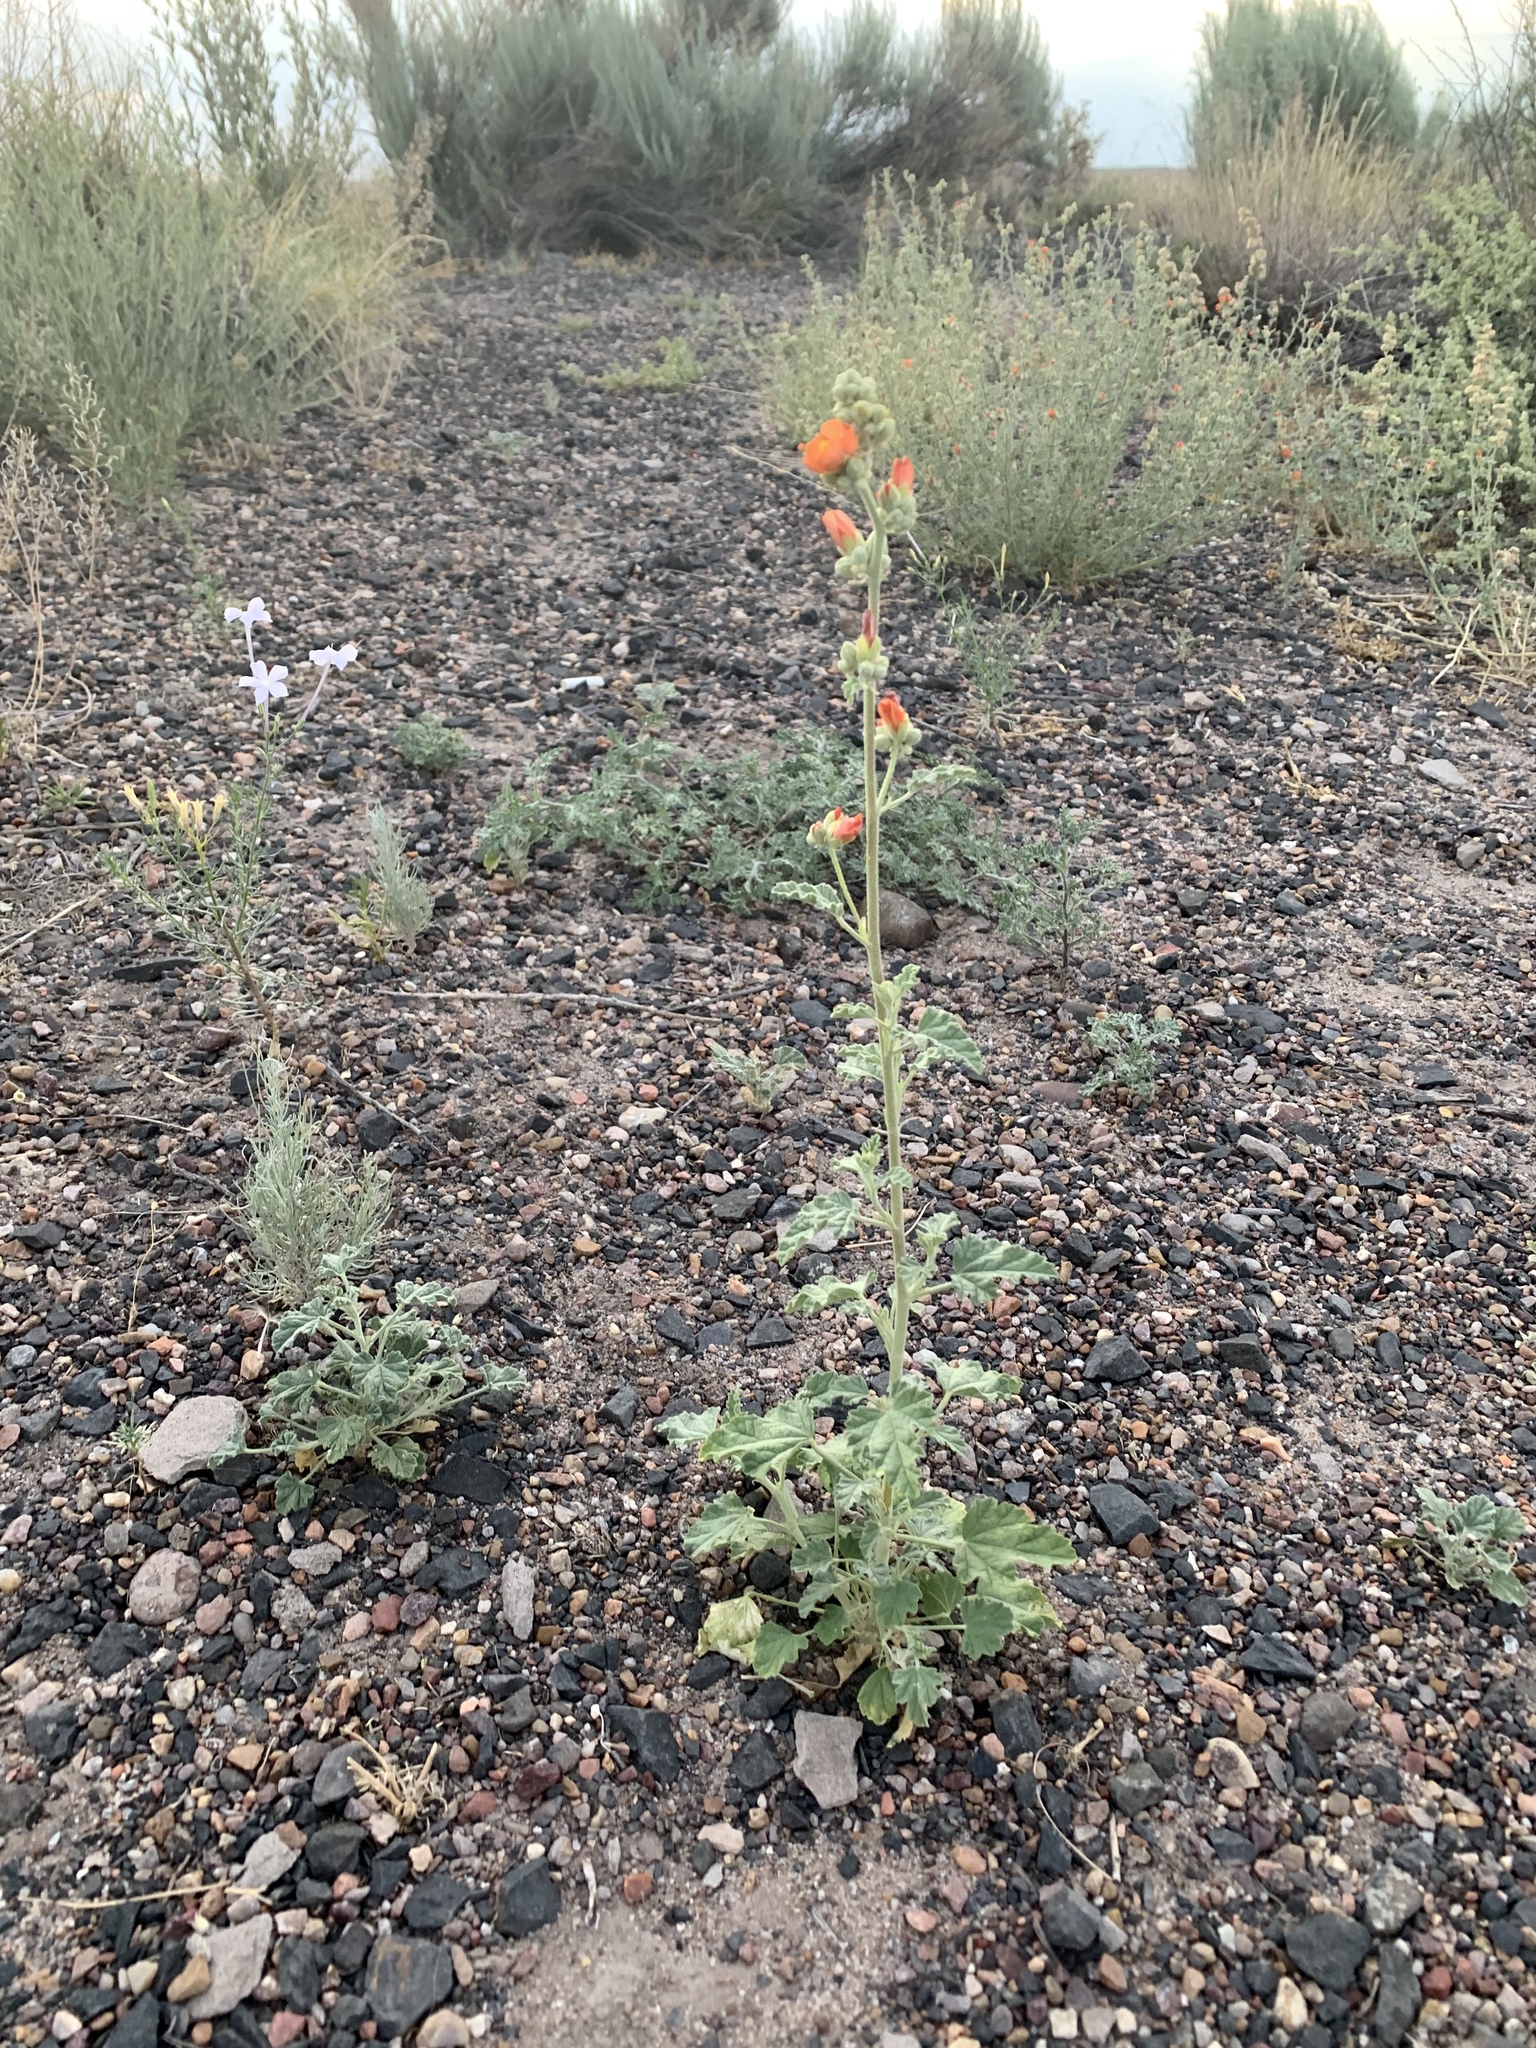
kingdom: Plantae
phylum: Tracheophyta
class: Magnoliopsida
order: Malvales
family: Malvaceae
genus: Sphaeralcea
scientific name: Sphaeralcea ambigua
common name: Apricot globe-mallow
